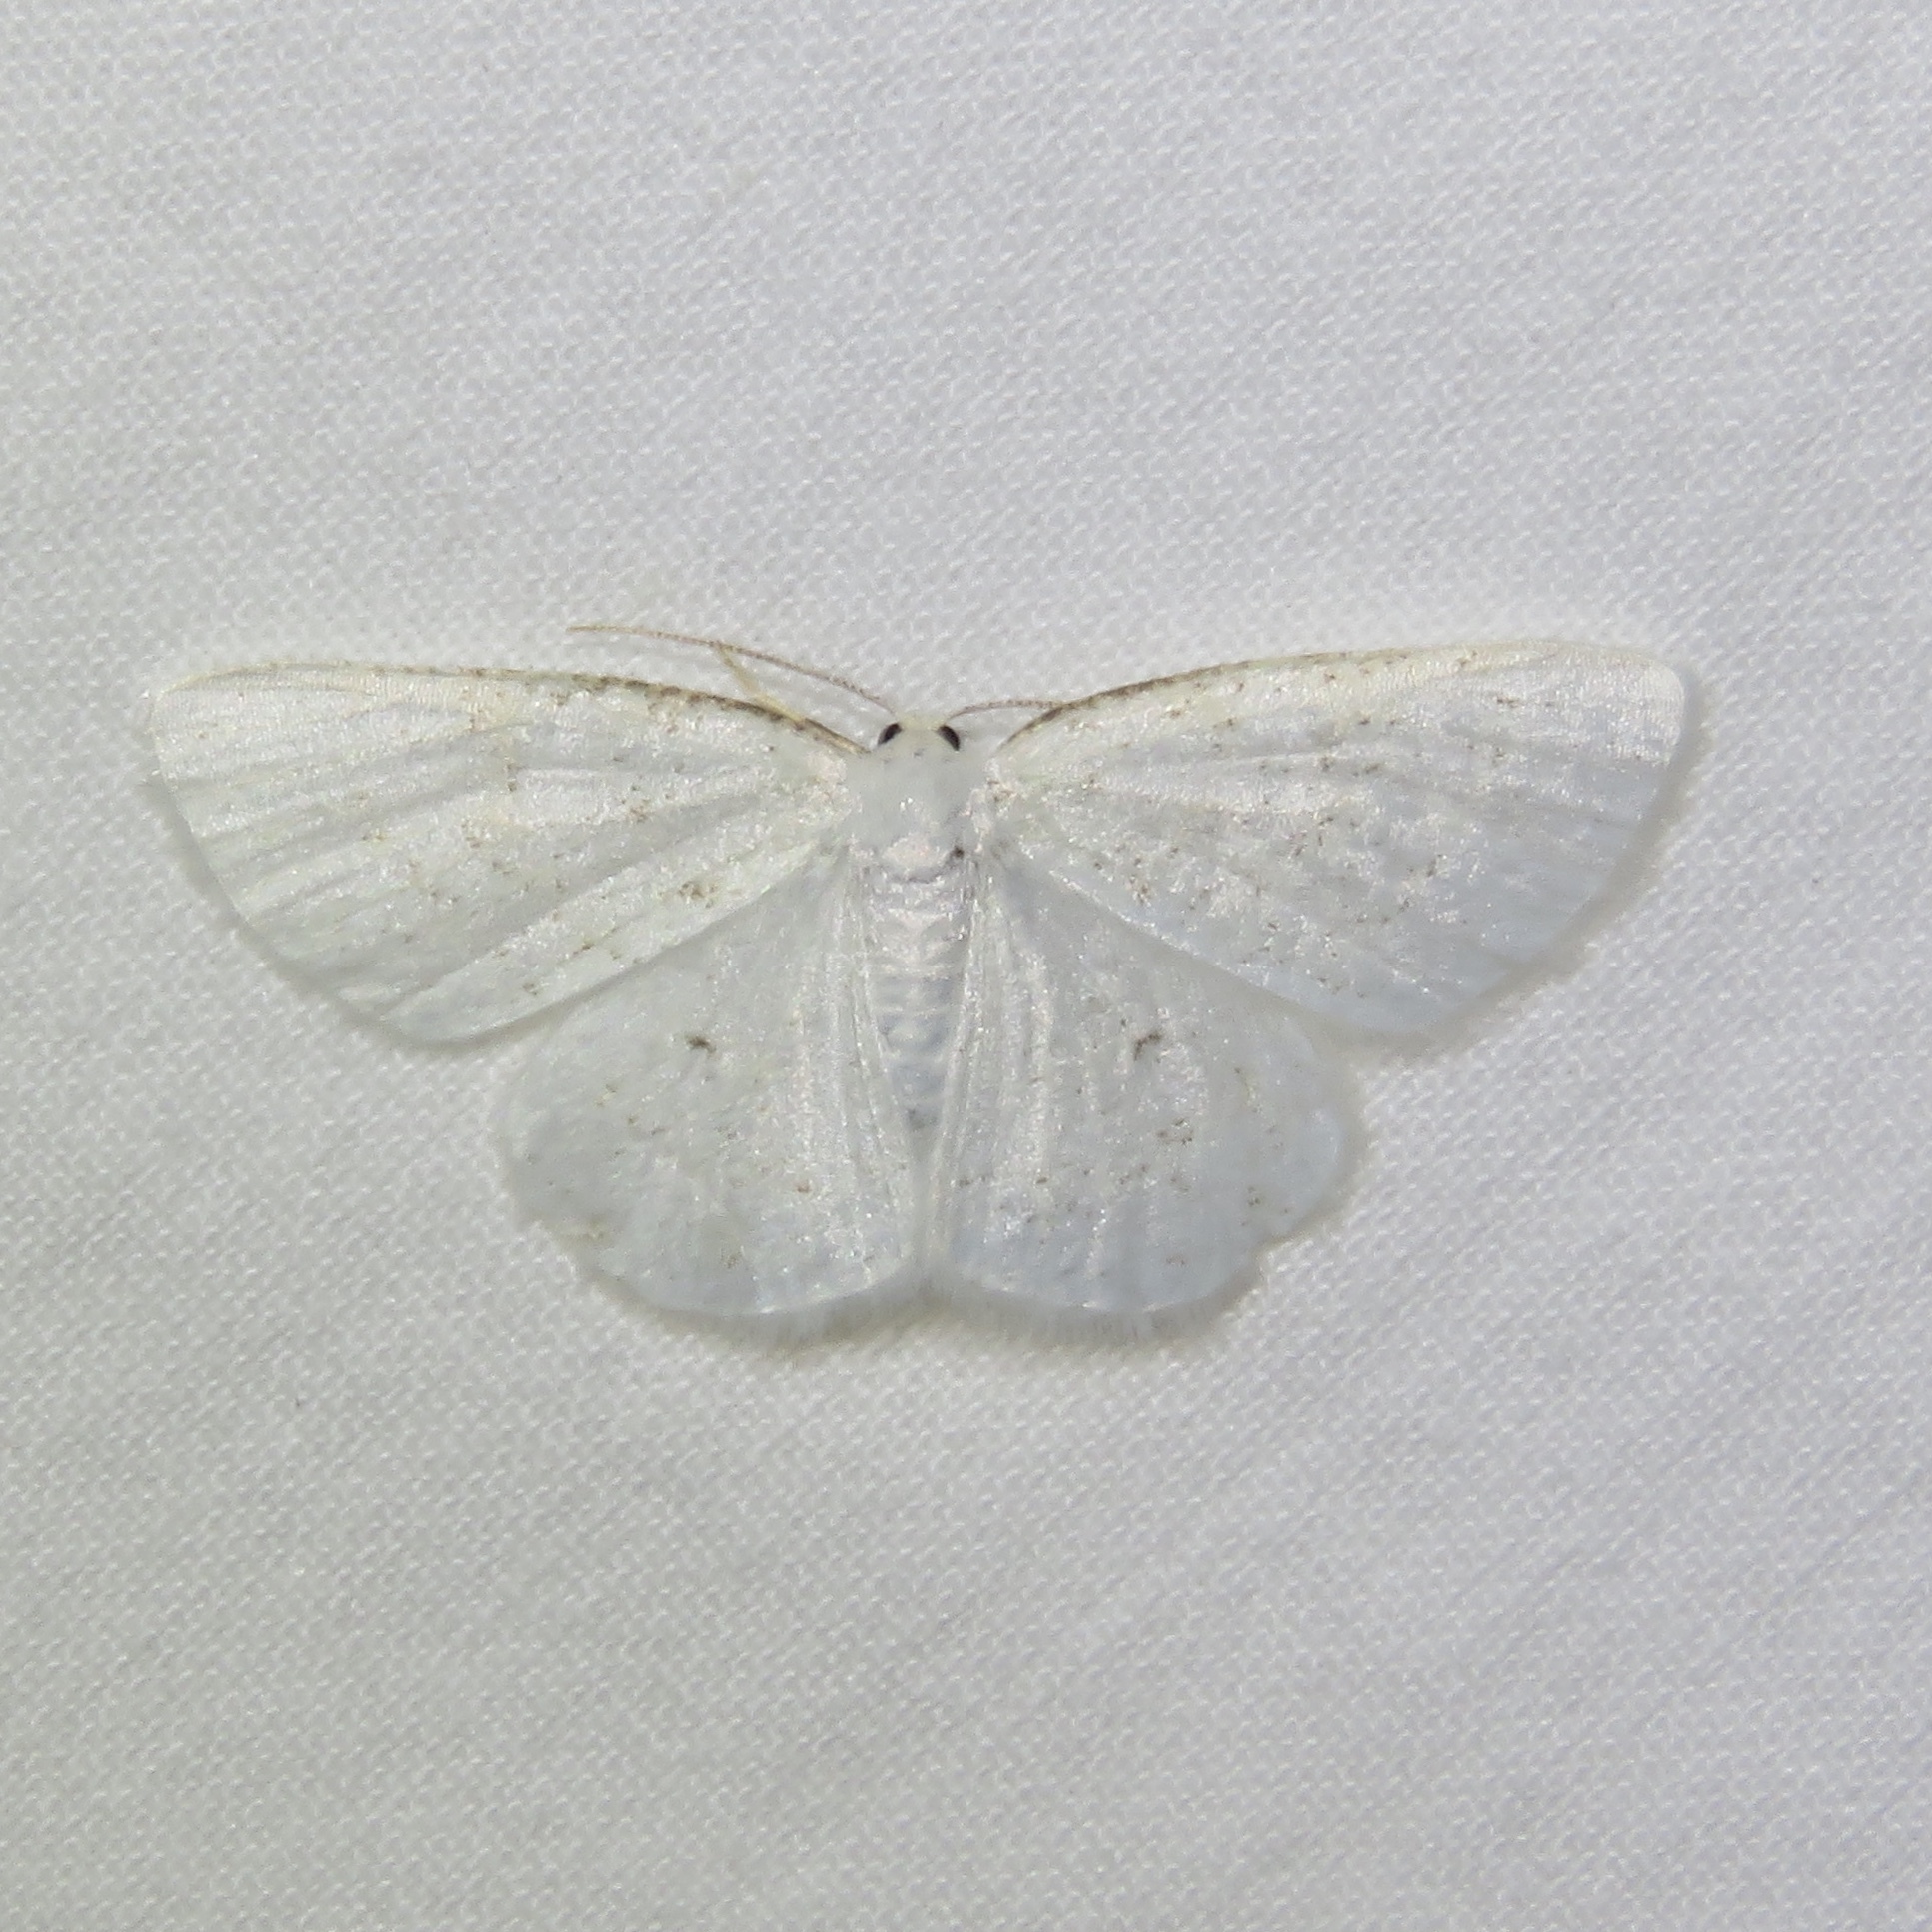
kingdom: Animalia
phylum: Arthropoda
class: Insecta
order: Lepidoptera
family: Geometridae
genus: Protitame
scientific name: Protitame virginalis
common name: Virgin moth
